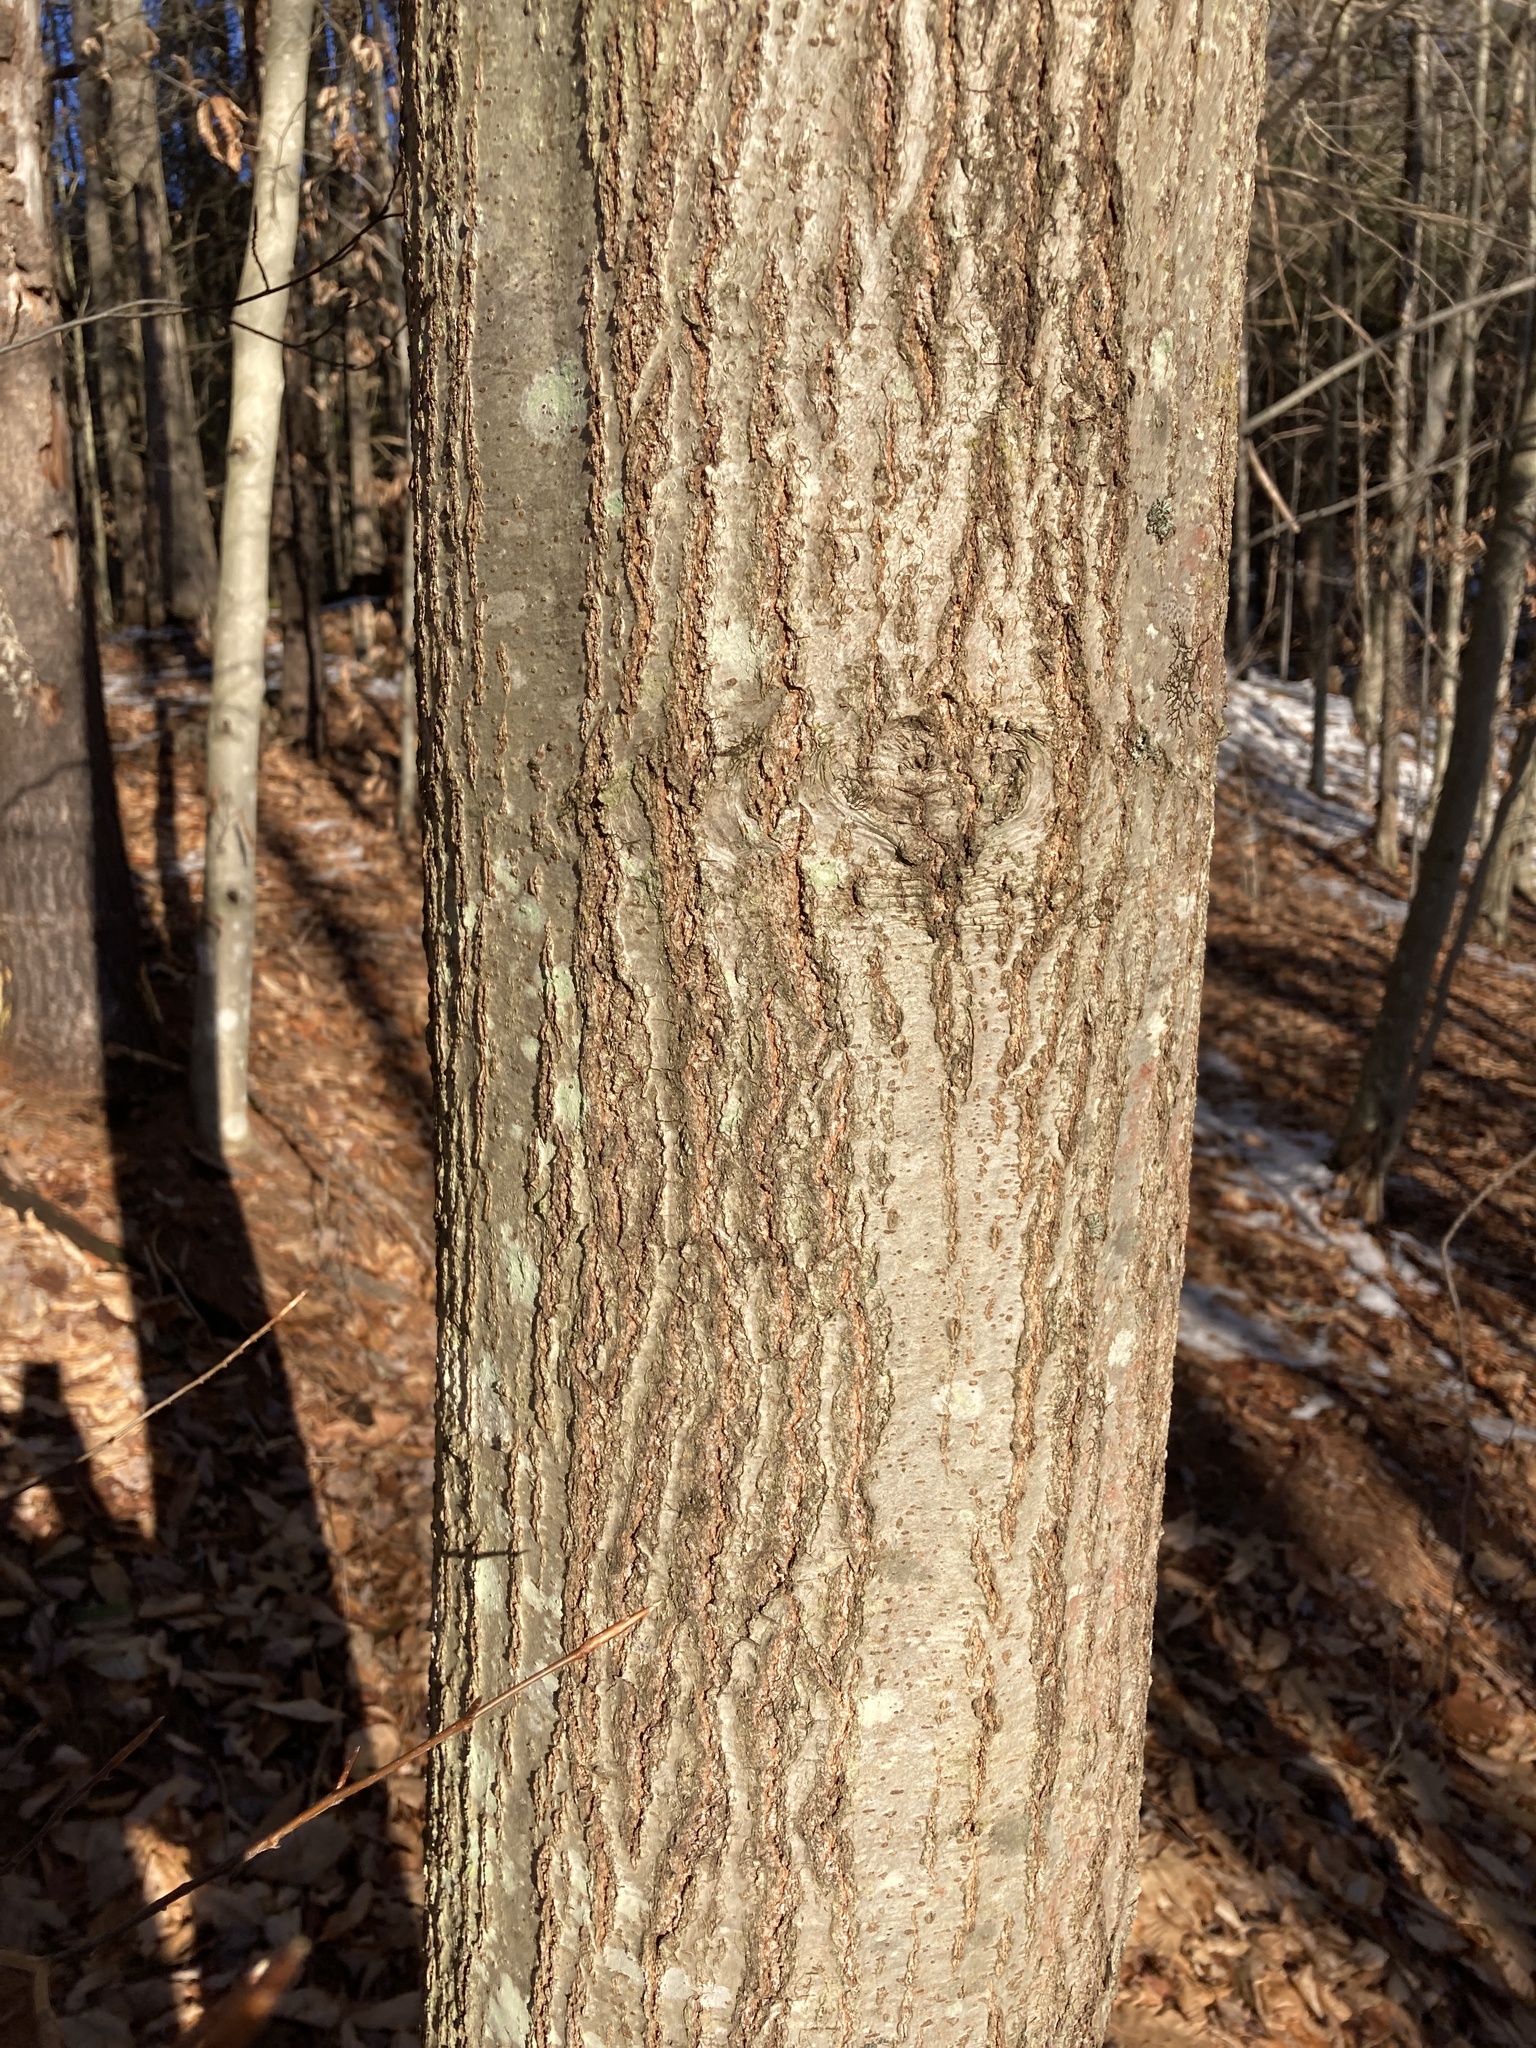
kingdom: Plantae
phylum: Tracheophyta
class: Magnoliopsida
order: Fagales
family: Fagaceae
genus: Quercus
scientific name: Quercus rubra
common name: Red oak
